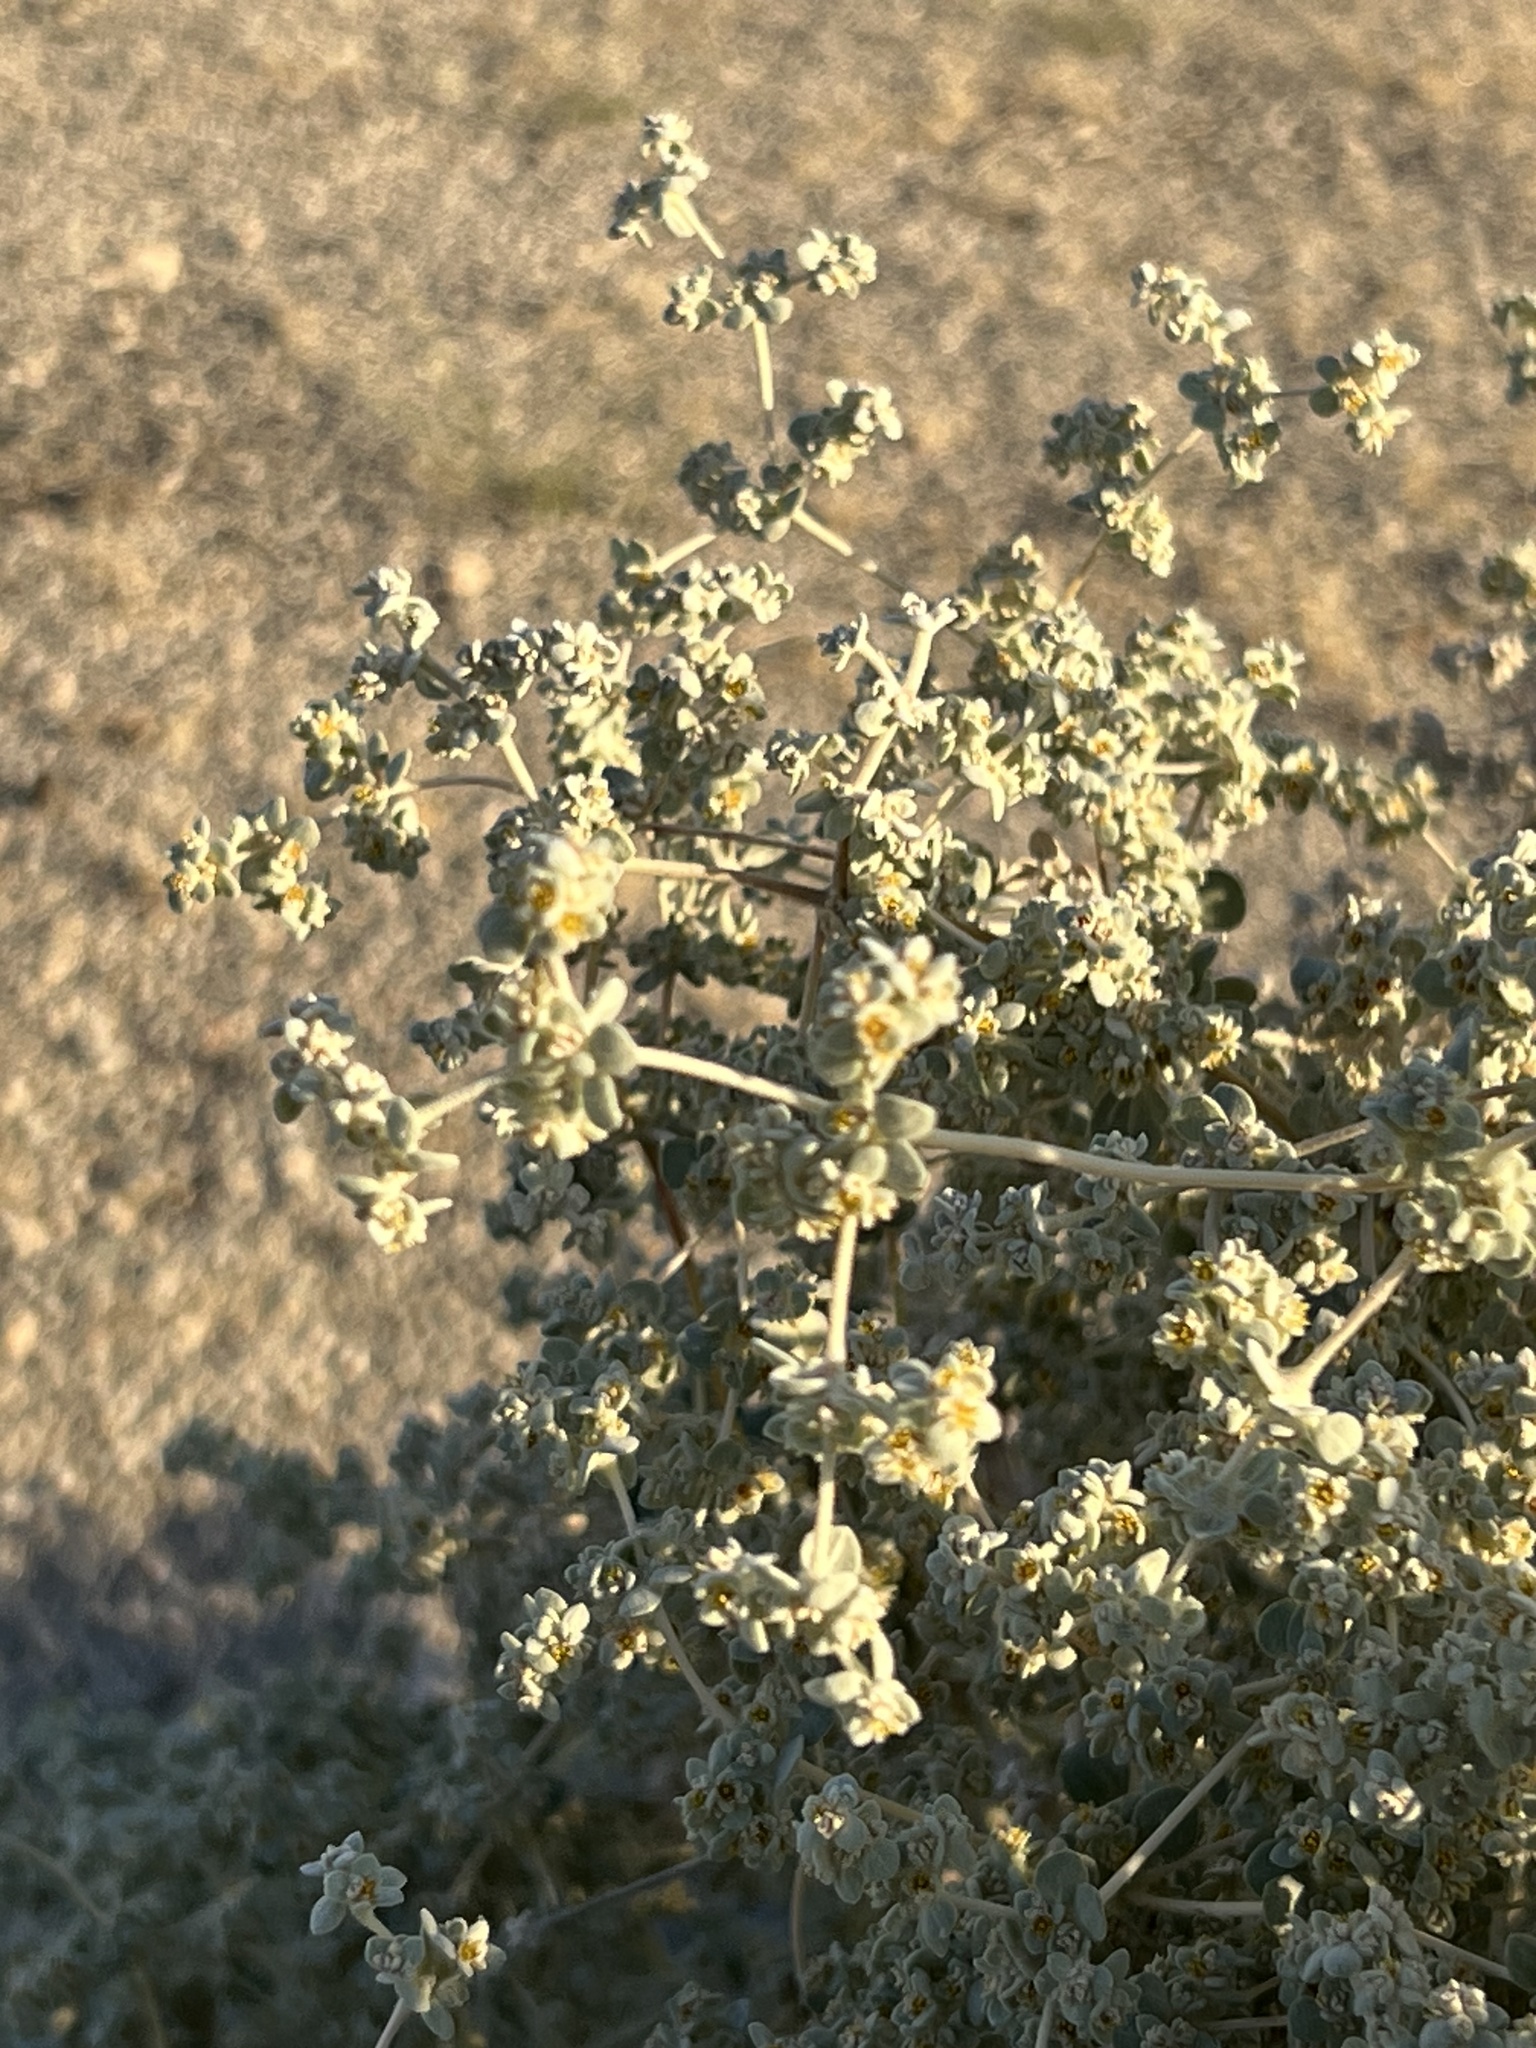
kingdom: Plantae
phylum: Tracheophyta
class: Magnoliopsida
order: Caryophyllales
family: Amaranthaceae
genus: Tidestromia
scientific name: Tidestromia suffruticosa
